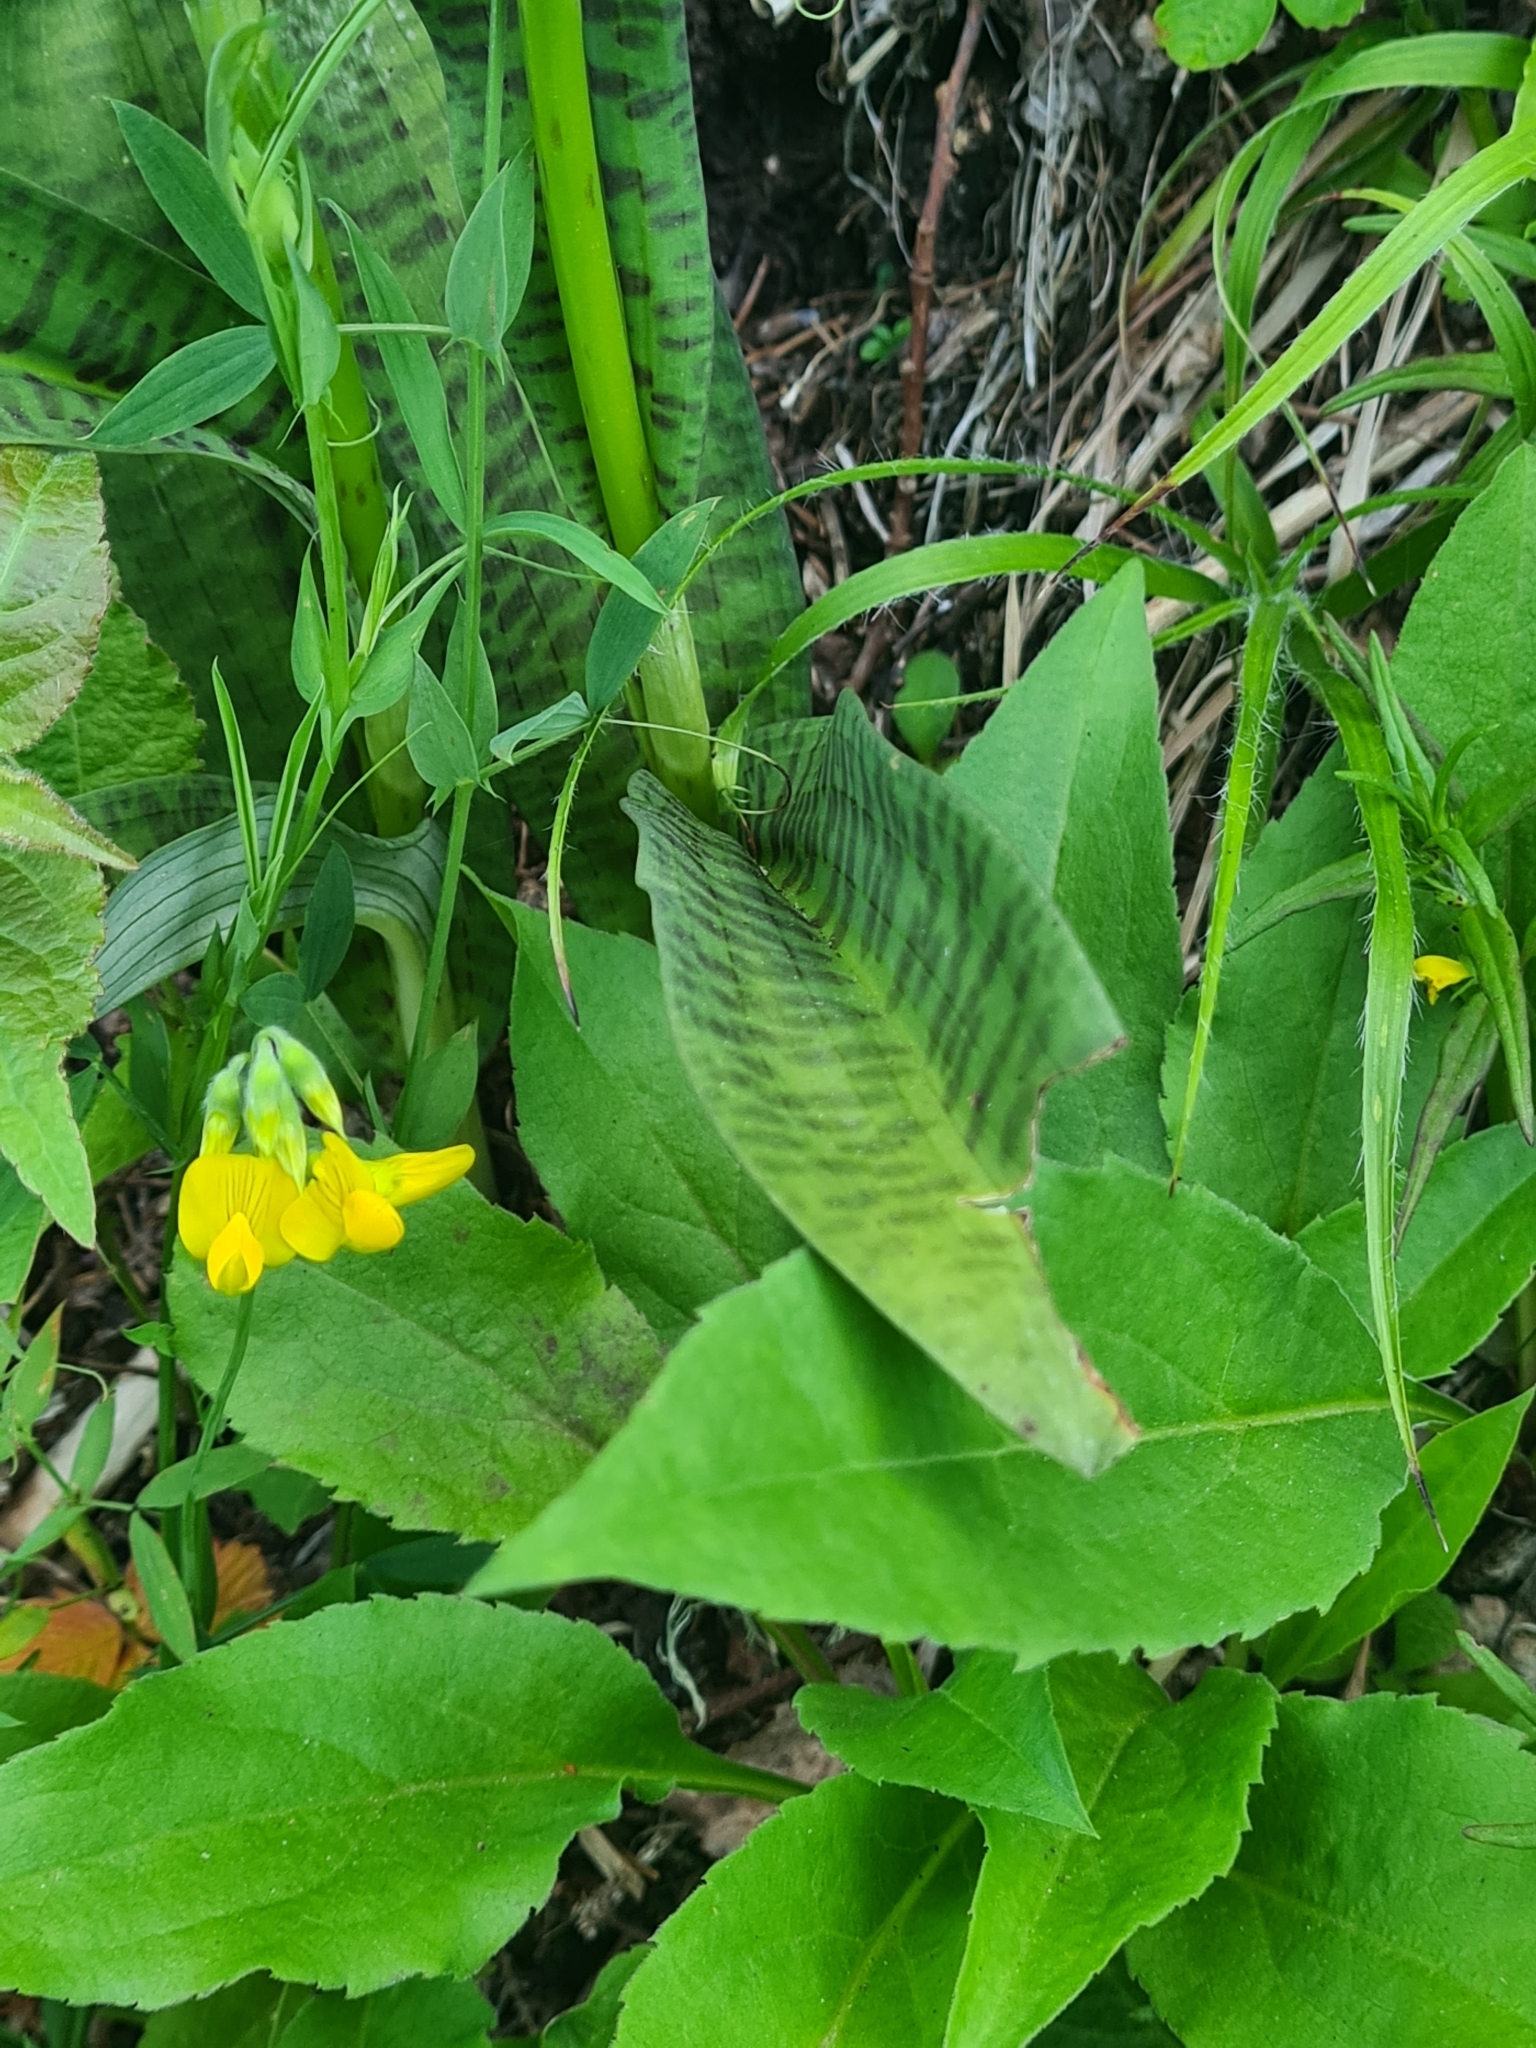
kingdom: Plantae
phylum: Tracheophyta
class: Liliopsida
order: Asparagales
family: Orchidaceae
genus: Dactylorhiza
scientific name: Dactylorhiza maculata
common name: Heath spotted-orchid
